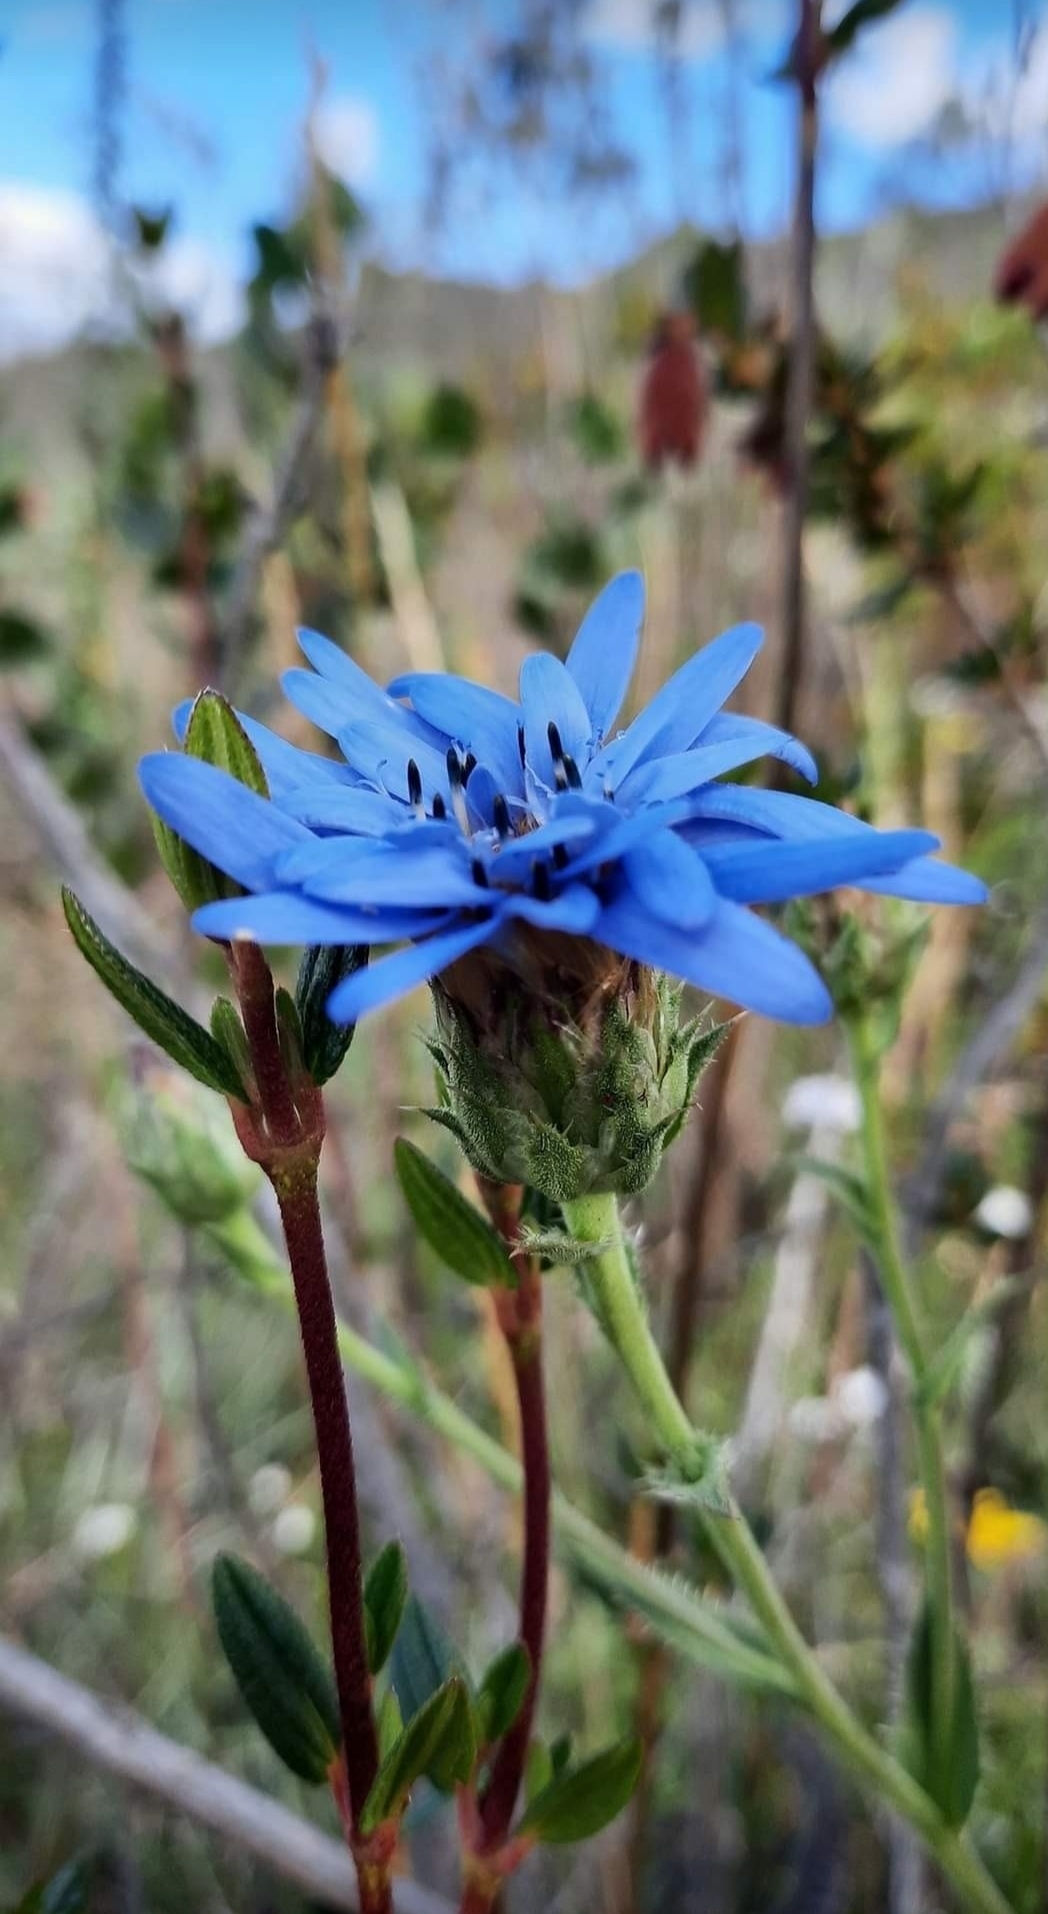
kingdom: Plantae
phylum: Tracheophyta
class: Magnoliopsida
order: Asterales
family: Asteraceae
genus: Perezia
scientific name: Perezia pungens
